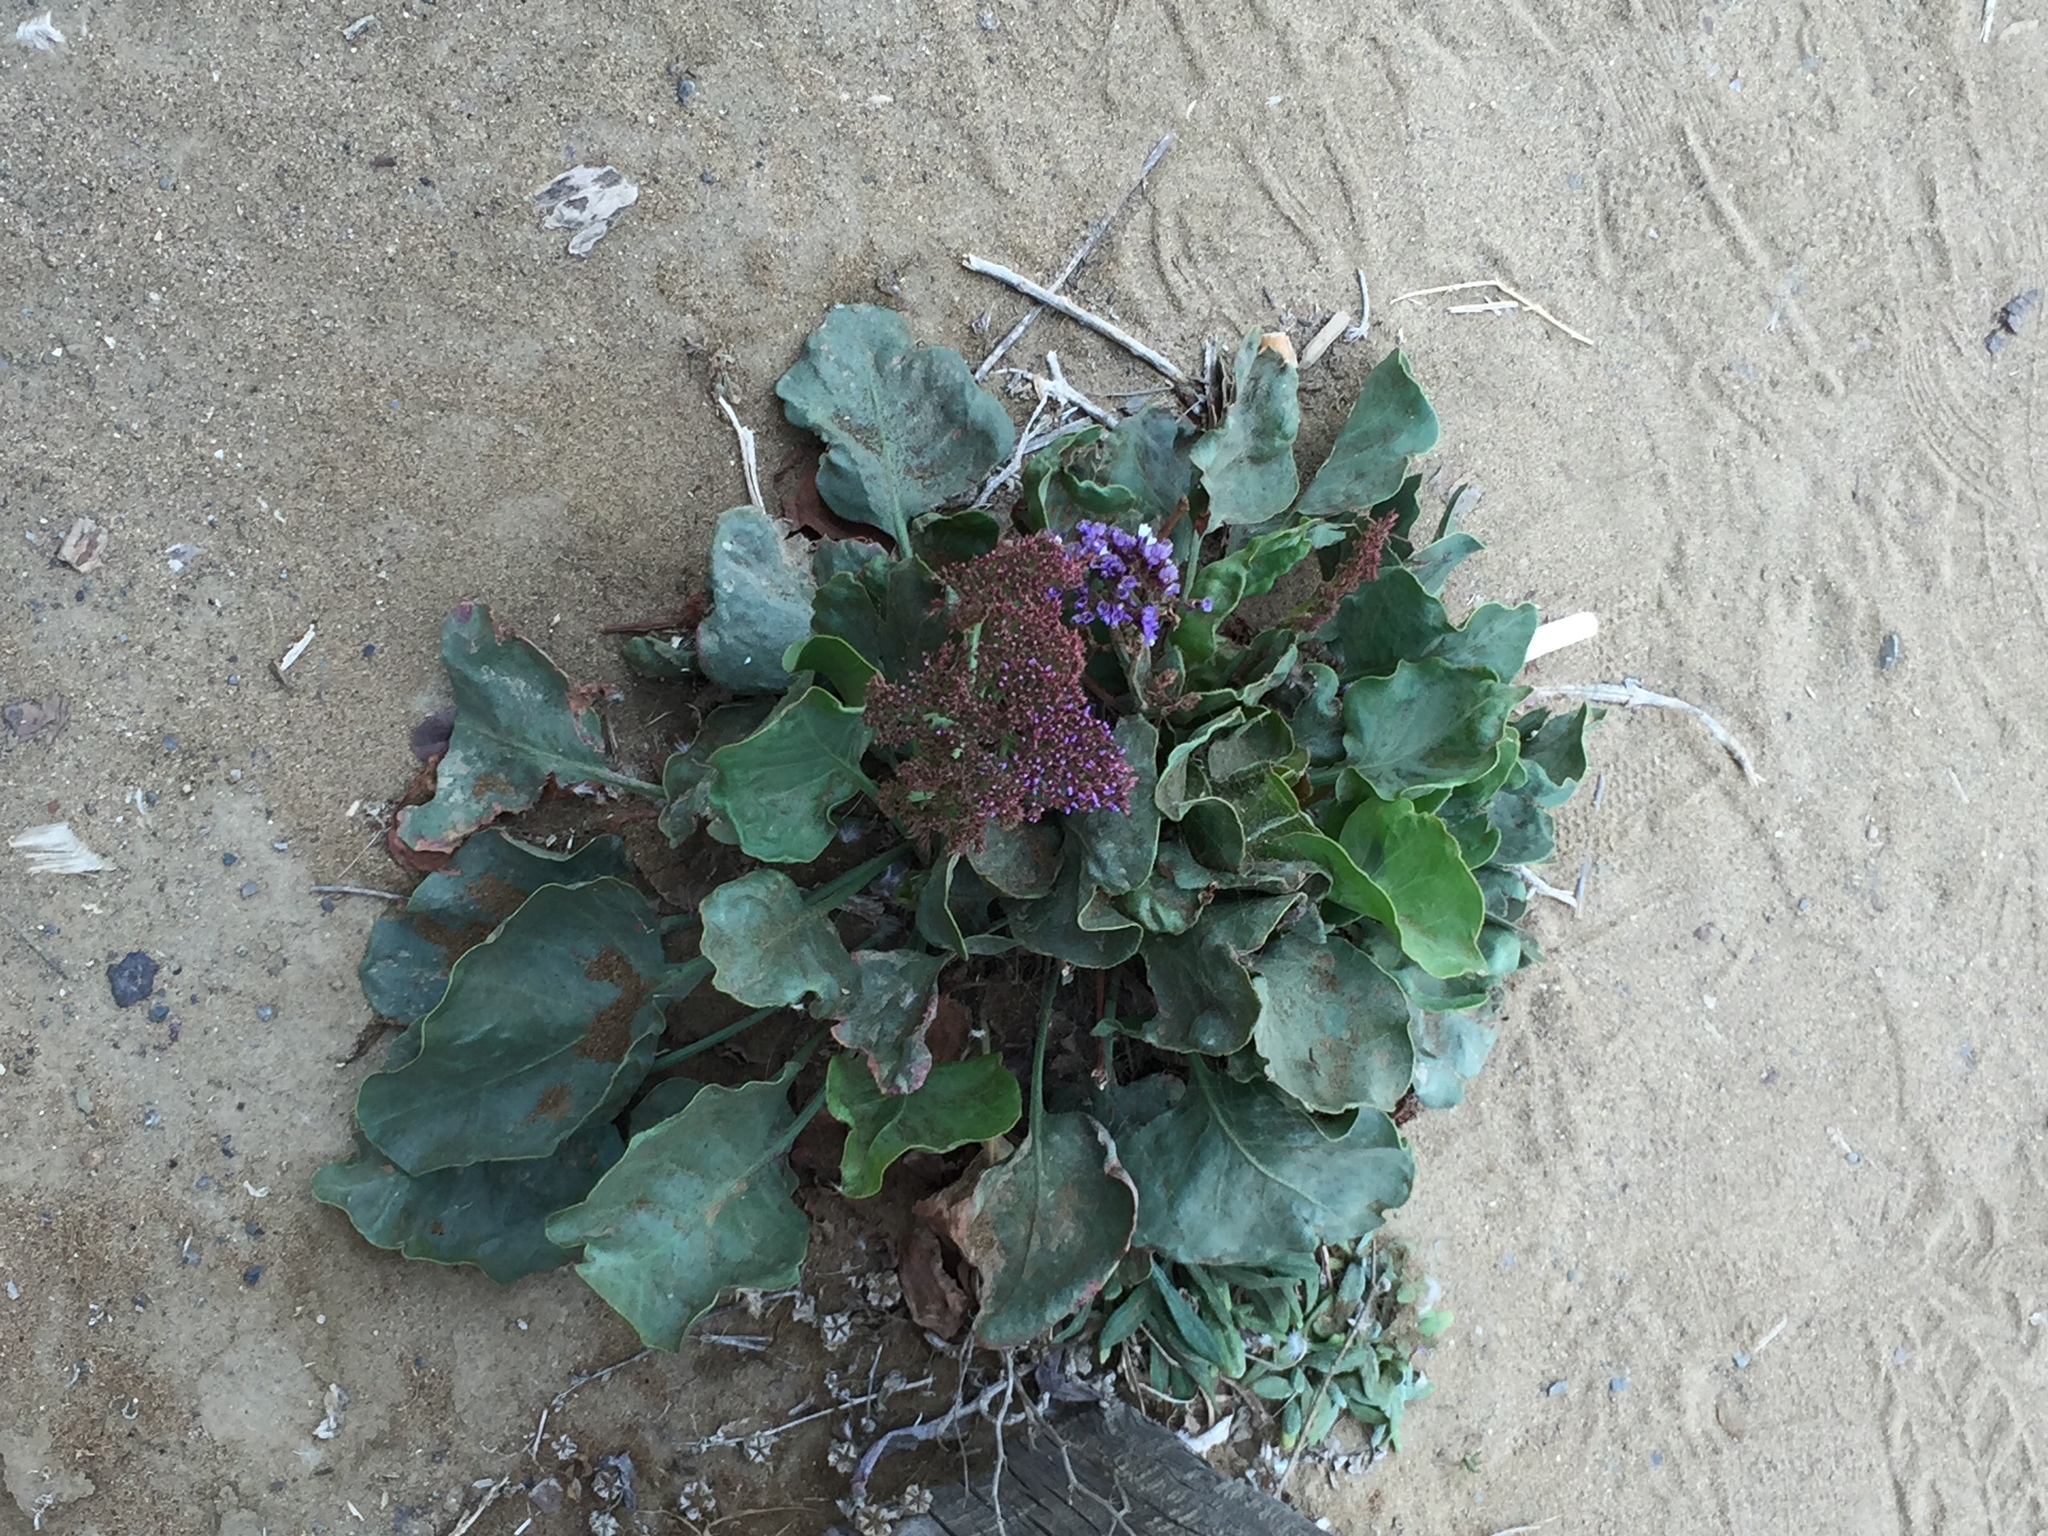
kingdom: Plantae
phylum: Tracheophyta
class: Magnoliopsida
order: Caryophyllales
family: Plumbaginaceae
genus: Limonium
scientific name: Limonium perezii
